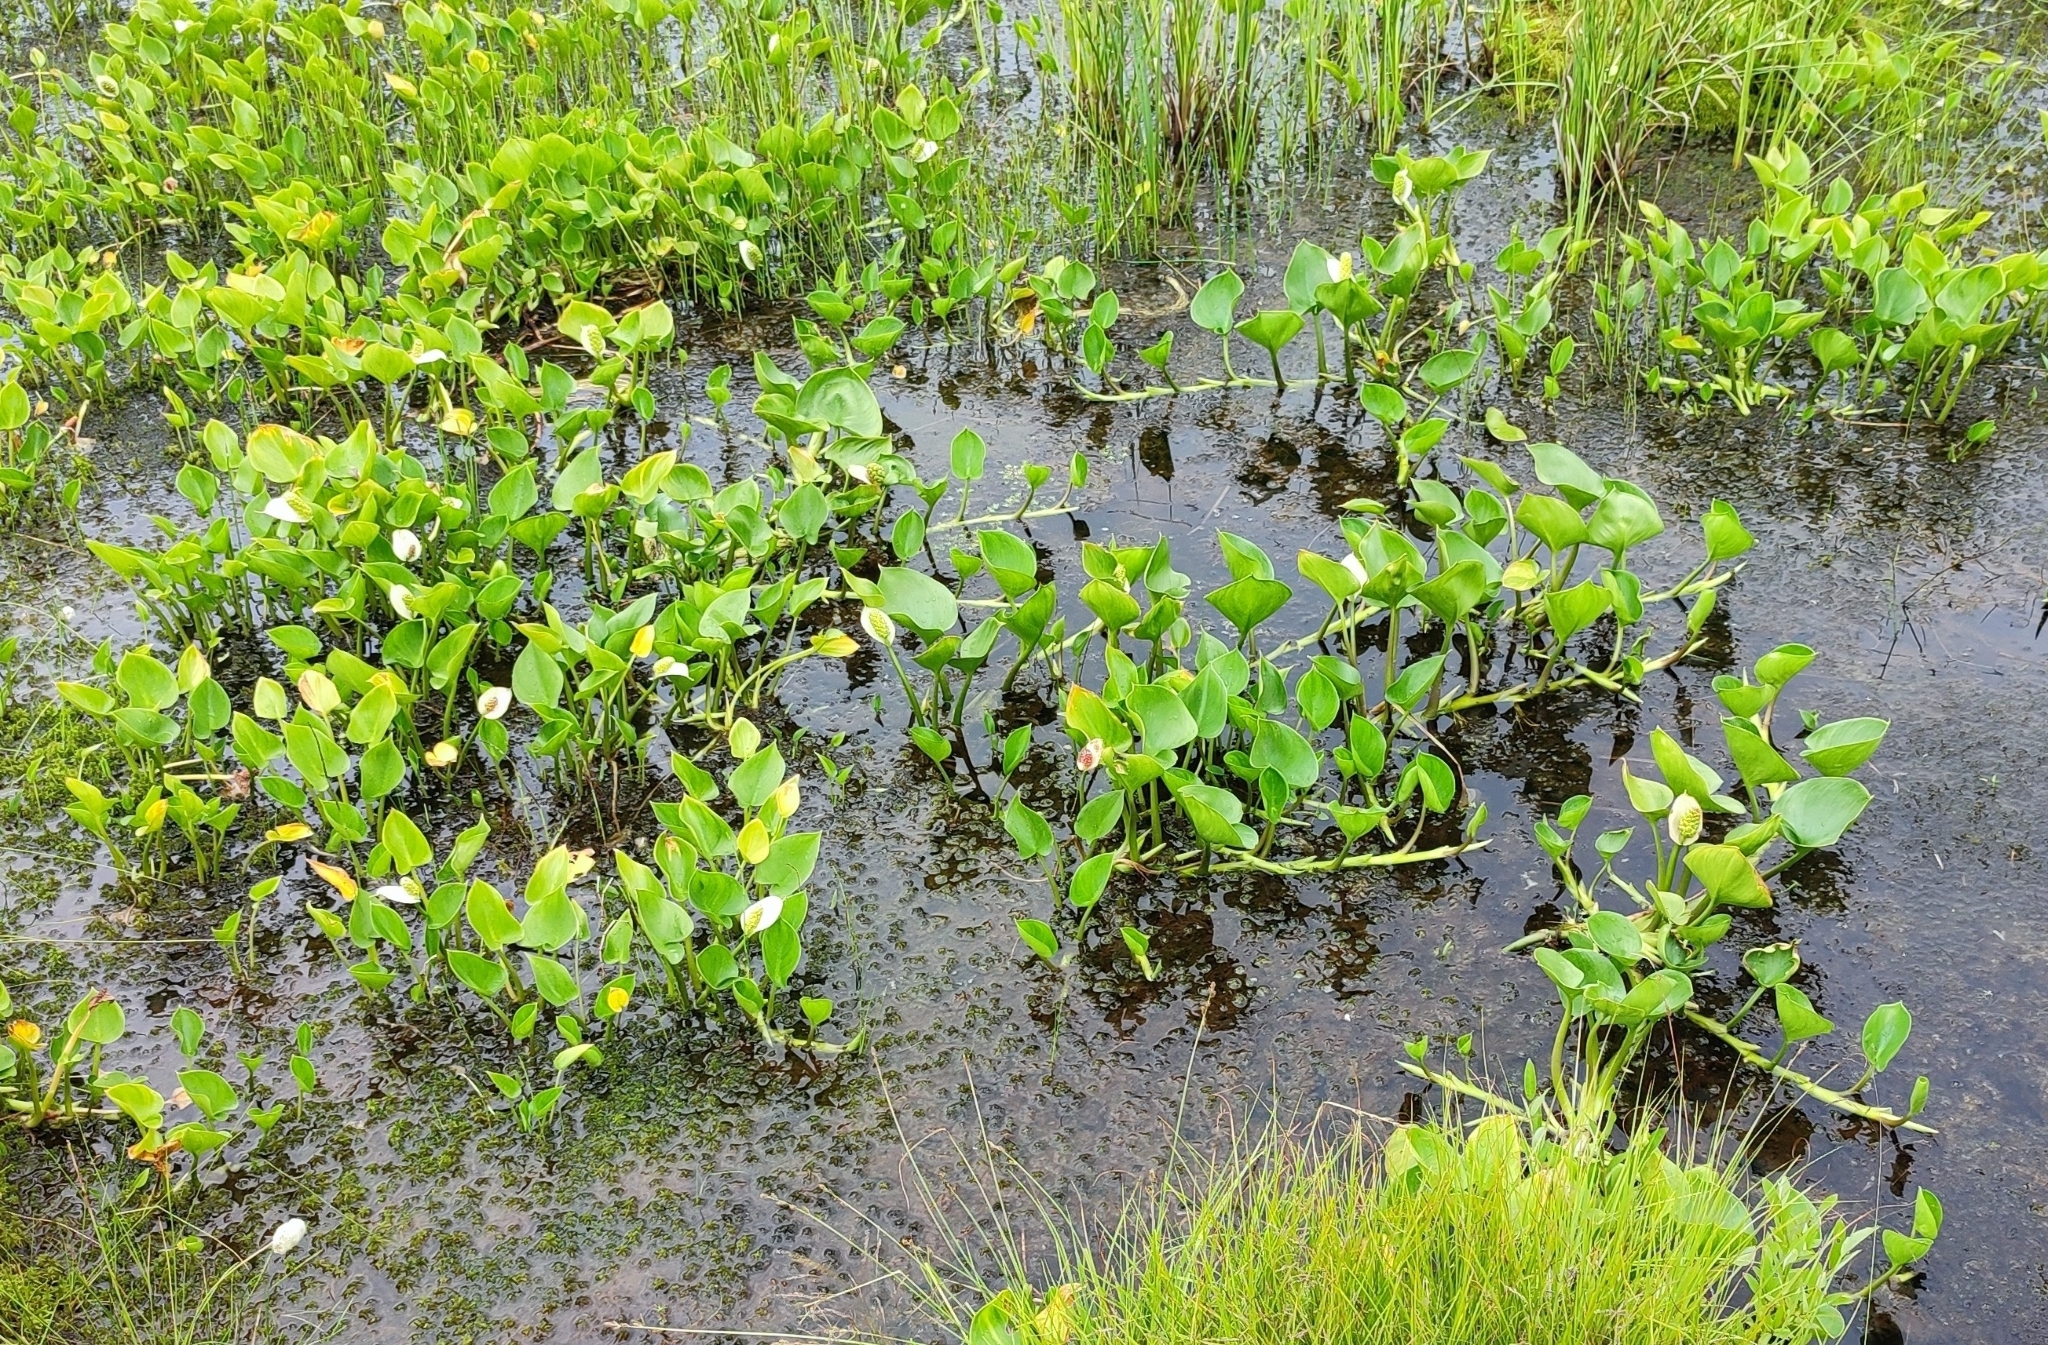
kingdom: Plantae
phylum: Tracheophyta
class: Liliopsida
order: Alismatales
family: Araceae
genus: Calla
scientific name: Calla palustris
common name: Bog arum
